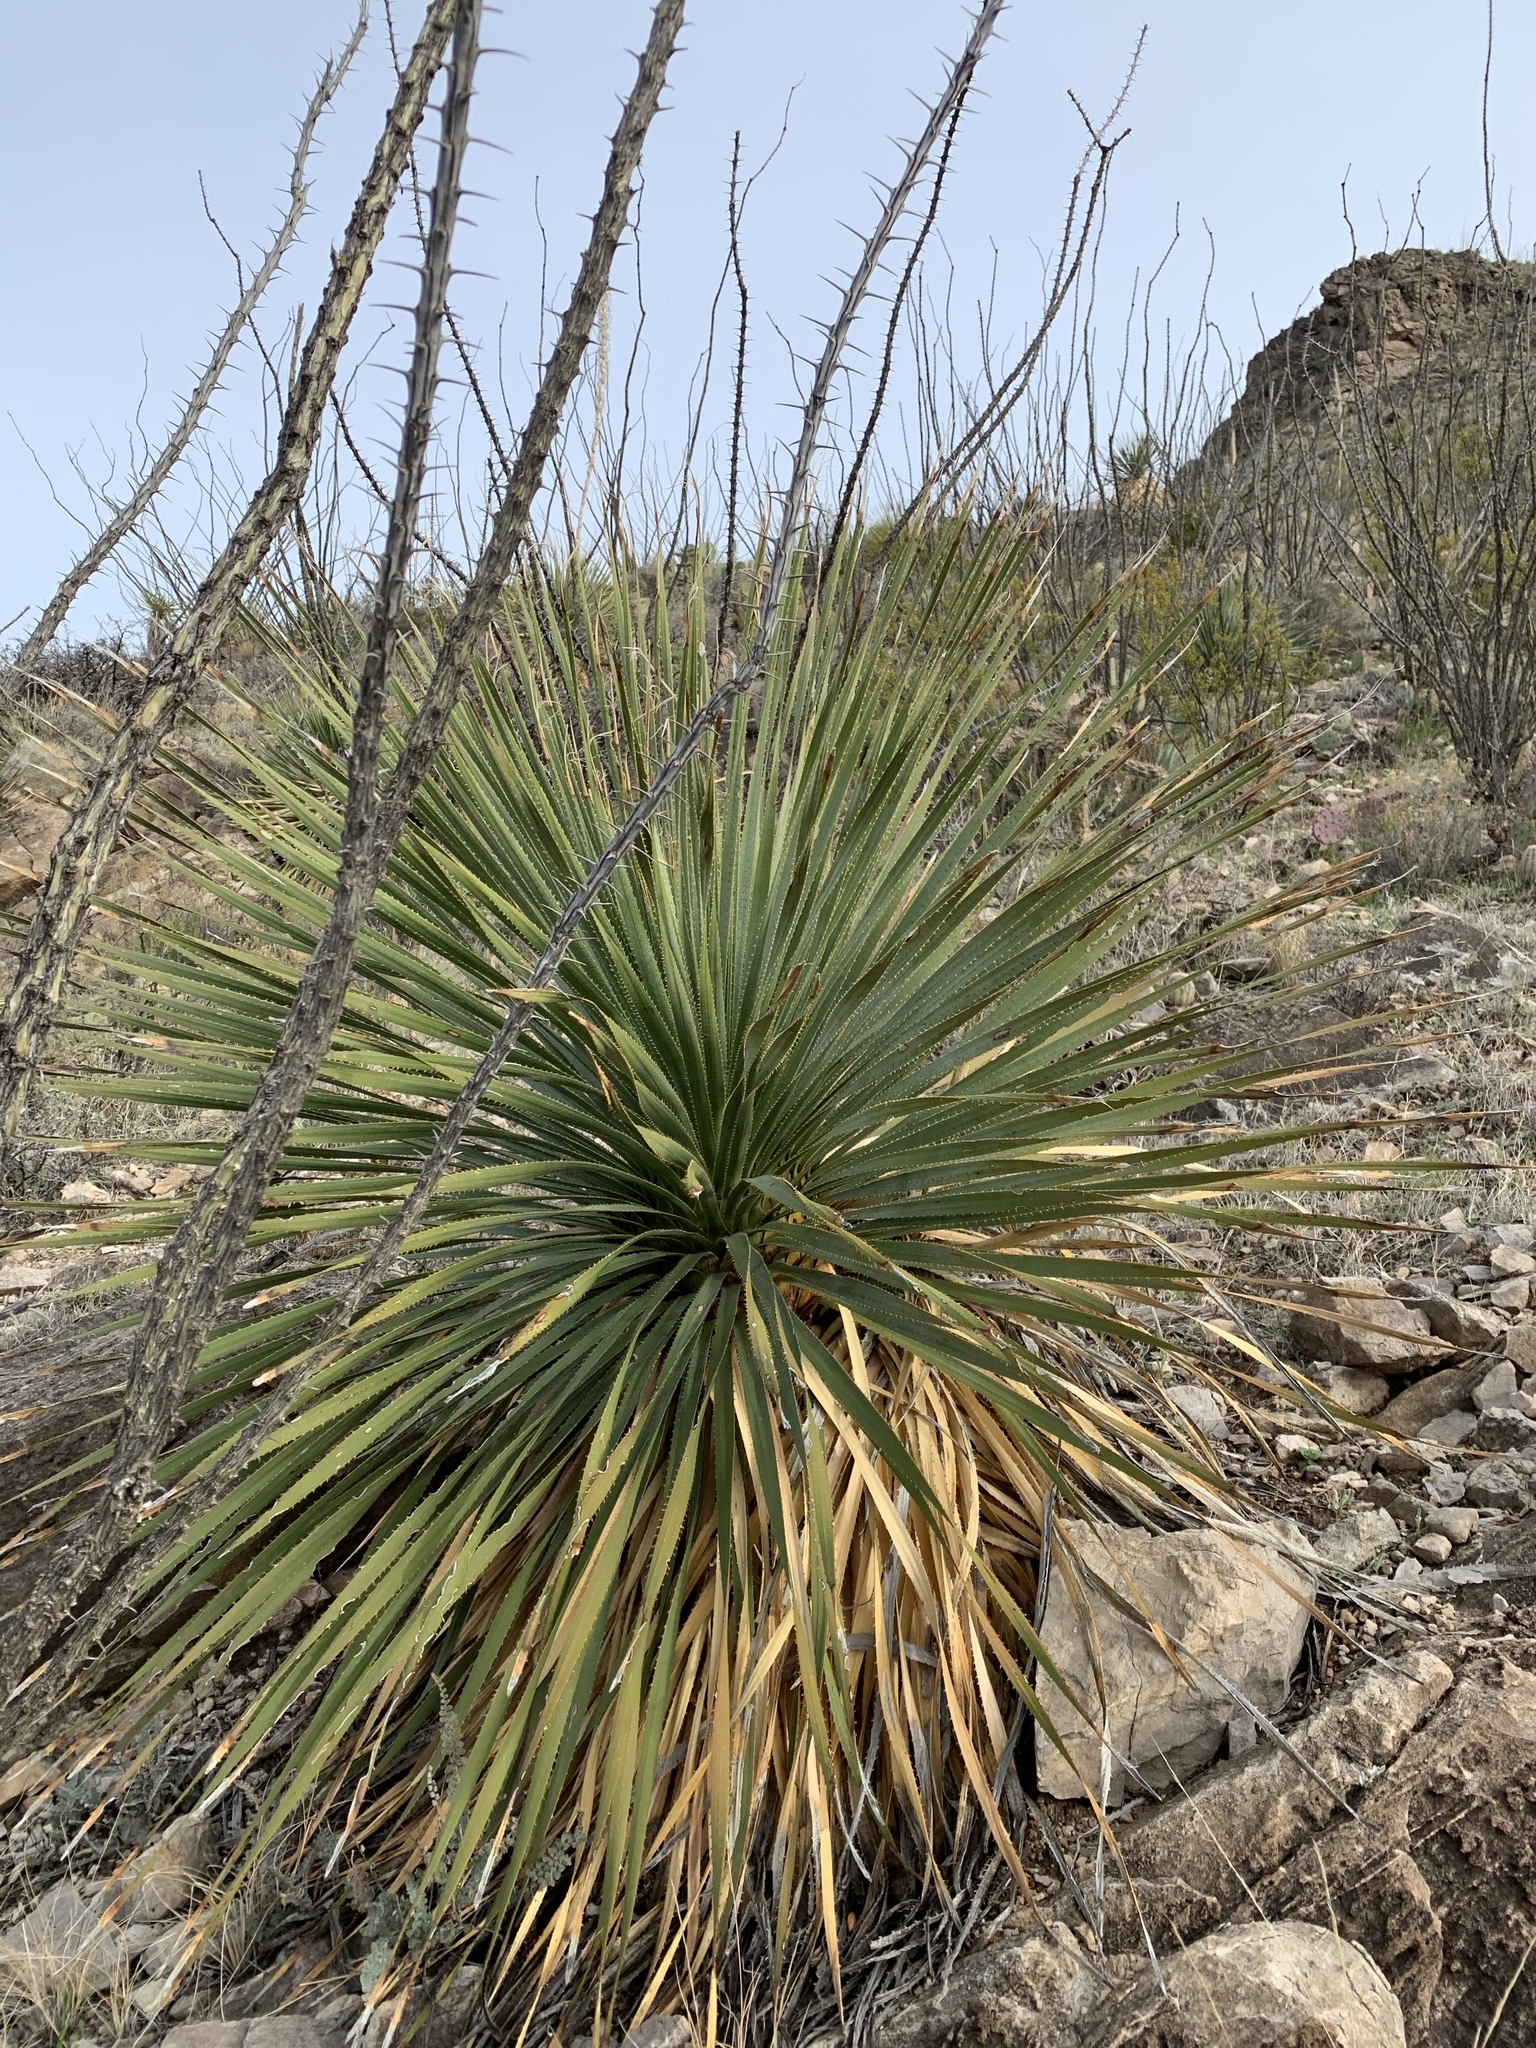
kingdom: Plantae
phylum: Tracheophyta
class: Liliopsida
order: Asparagales
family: Asparagaceae
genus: Dasylirion
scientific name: Dasylirion wheeleri
